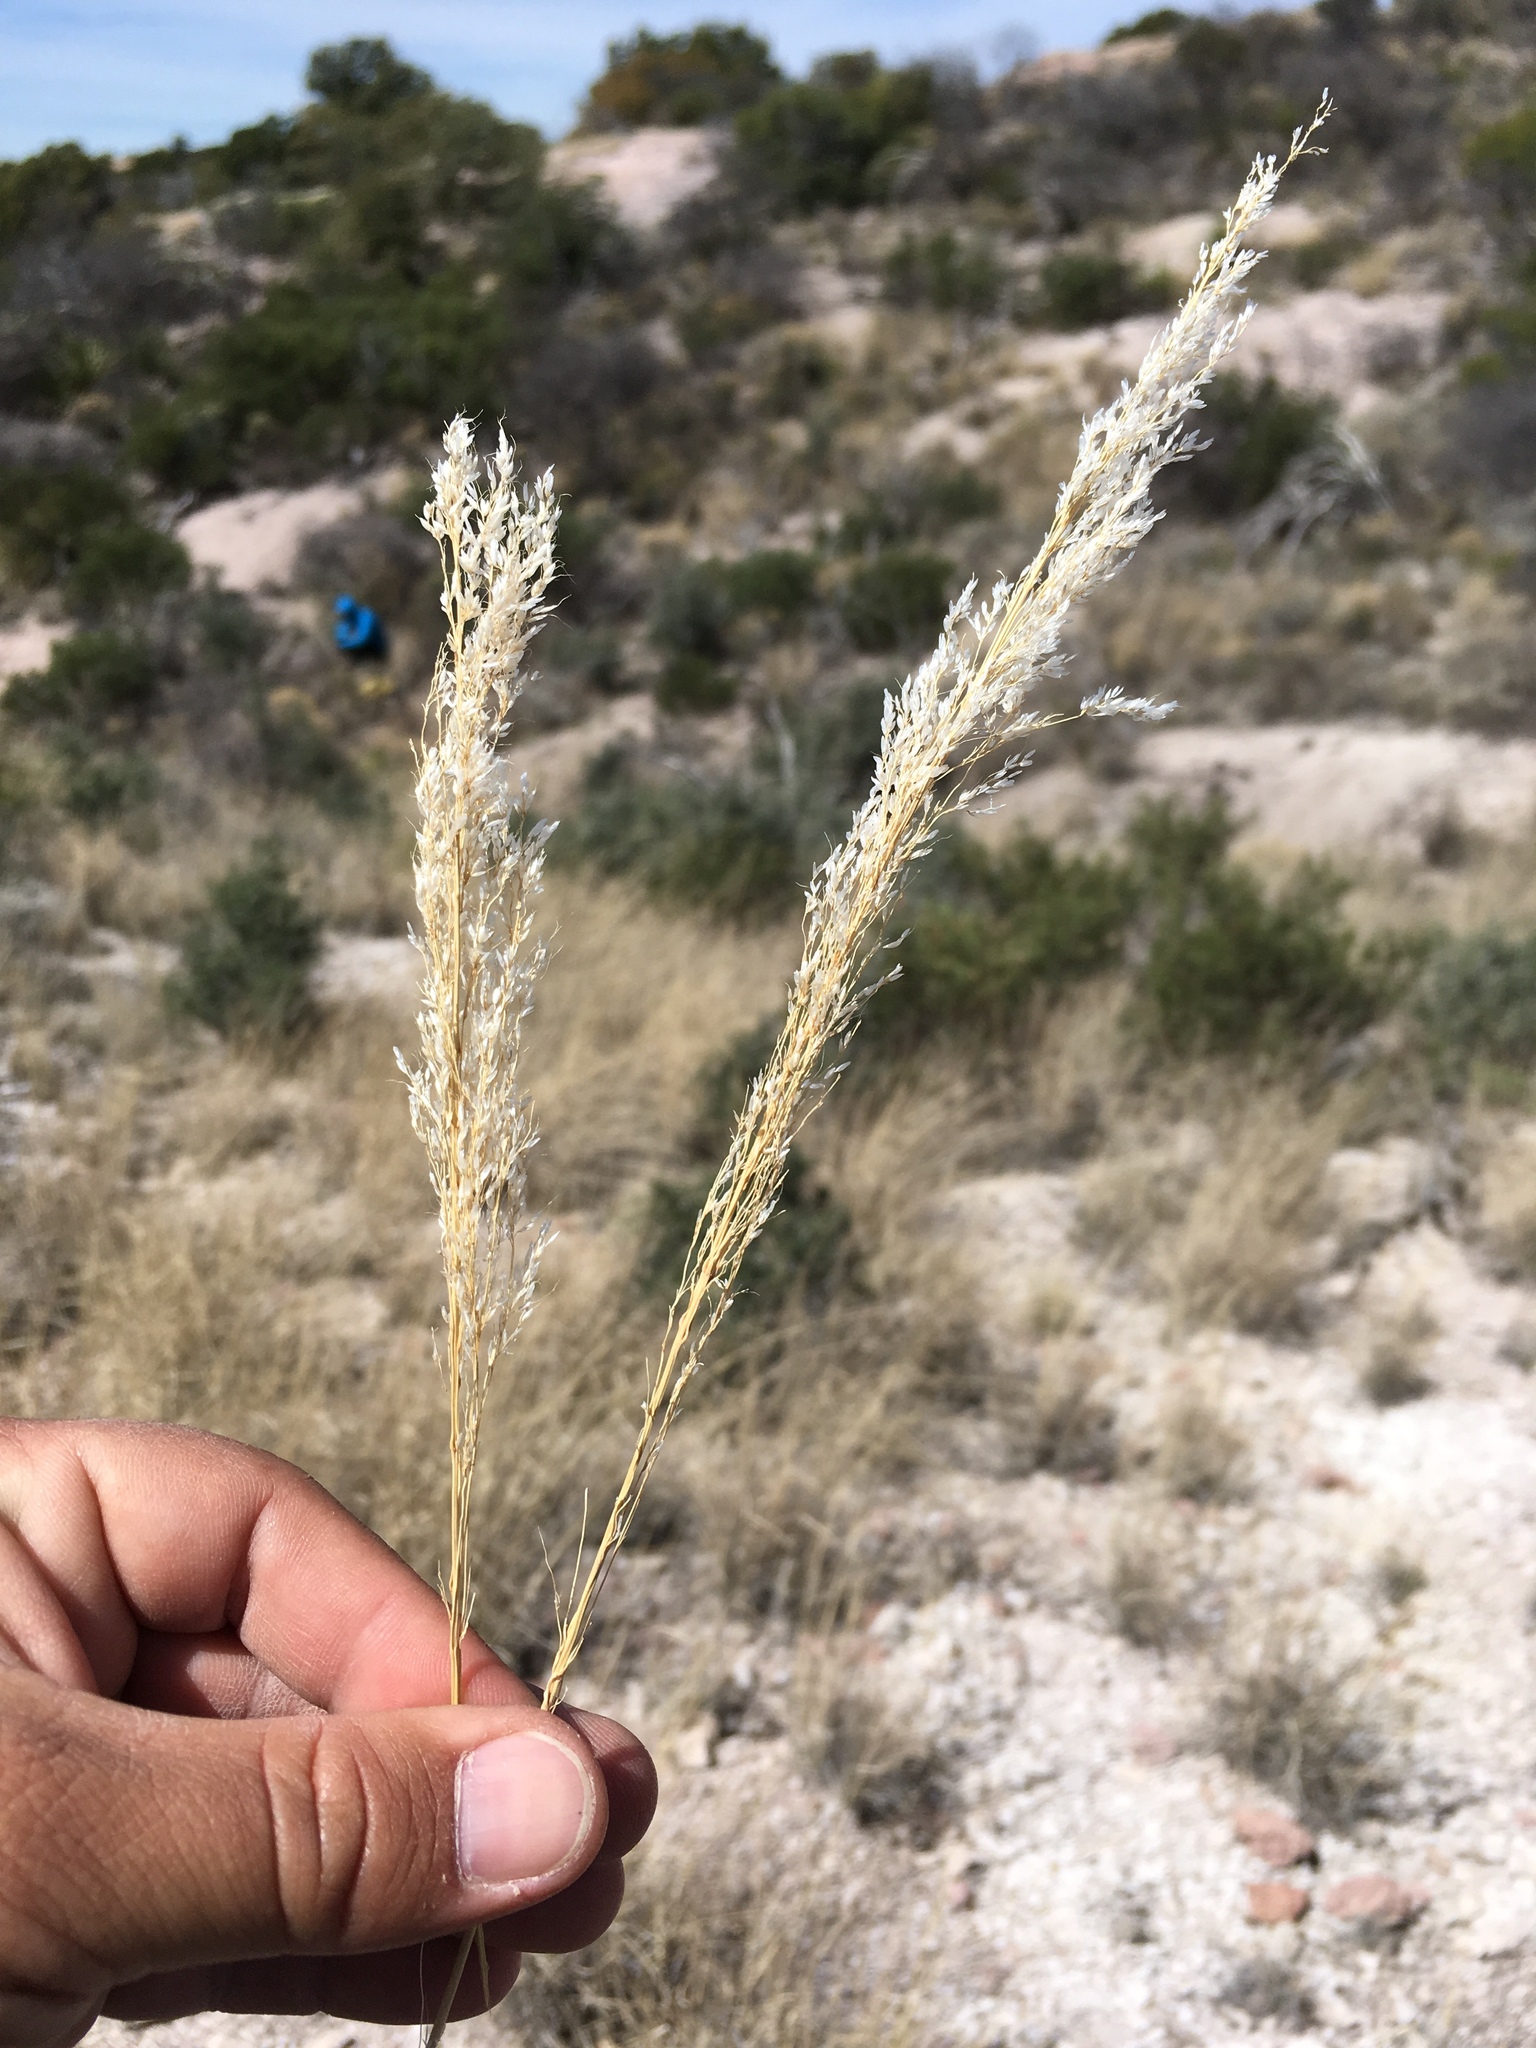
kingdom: Plantae
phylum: Tracheophyta
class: Liliopsida
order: Poales
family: Poaceae
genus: Muhlenbergia
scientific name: Muhlenbergia emersleyi
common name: Bull grass
